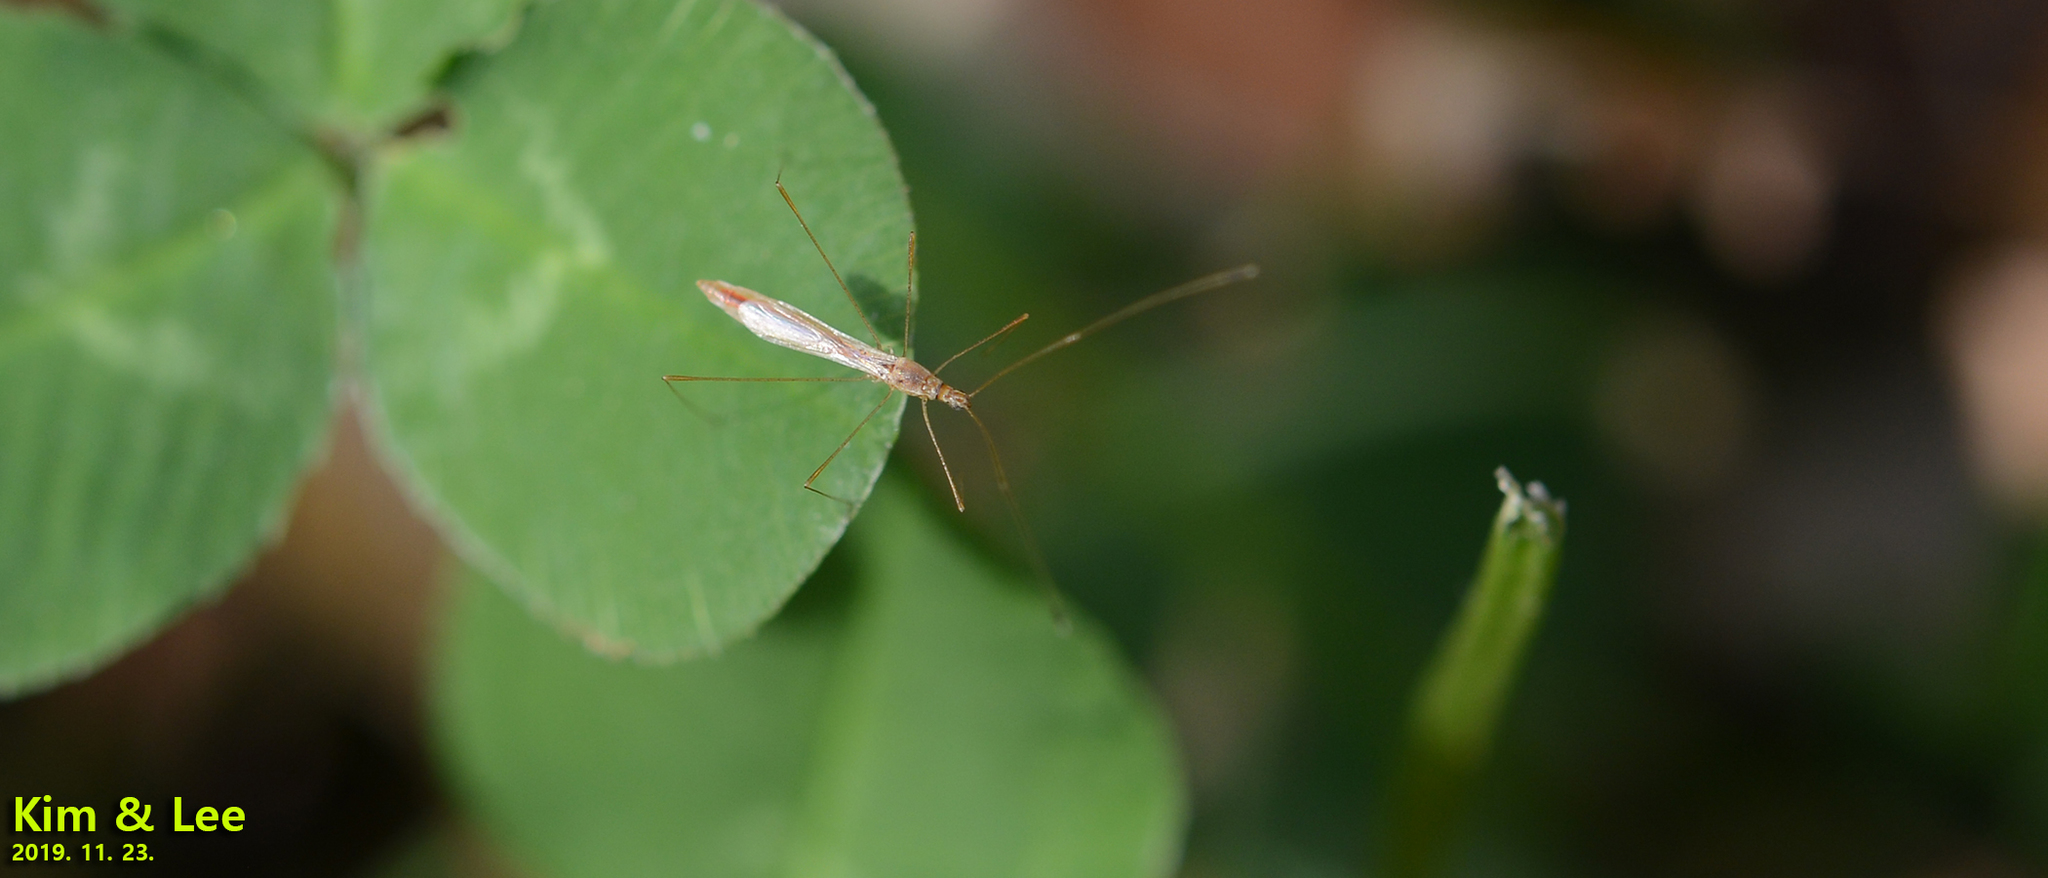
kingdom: Animalia
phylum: Arthropoda
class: Insecta
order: Hemiptera
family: Berytidae
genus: Yemma
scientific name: Yemma exilis
